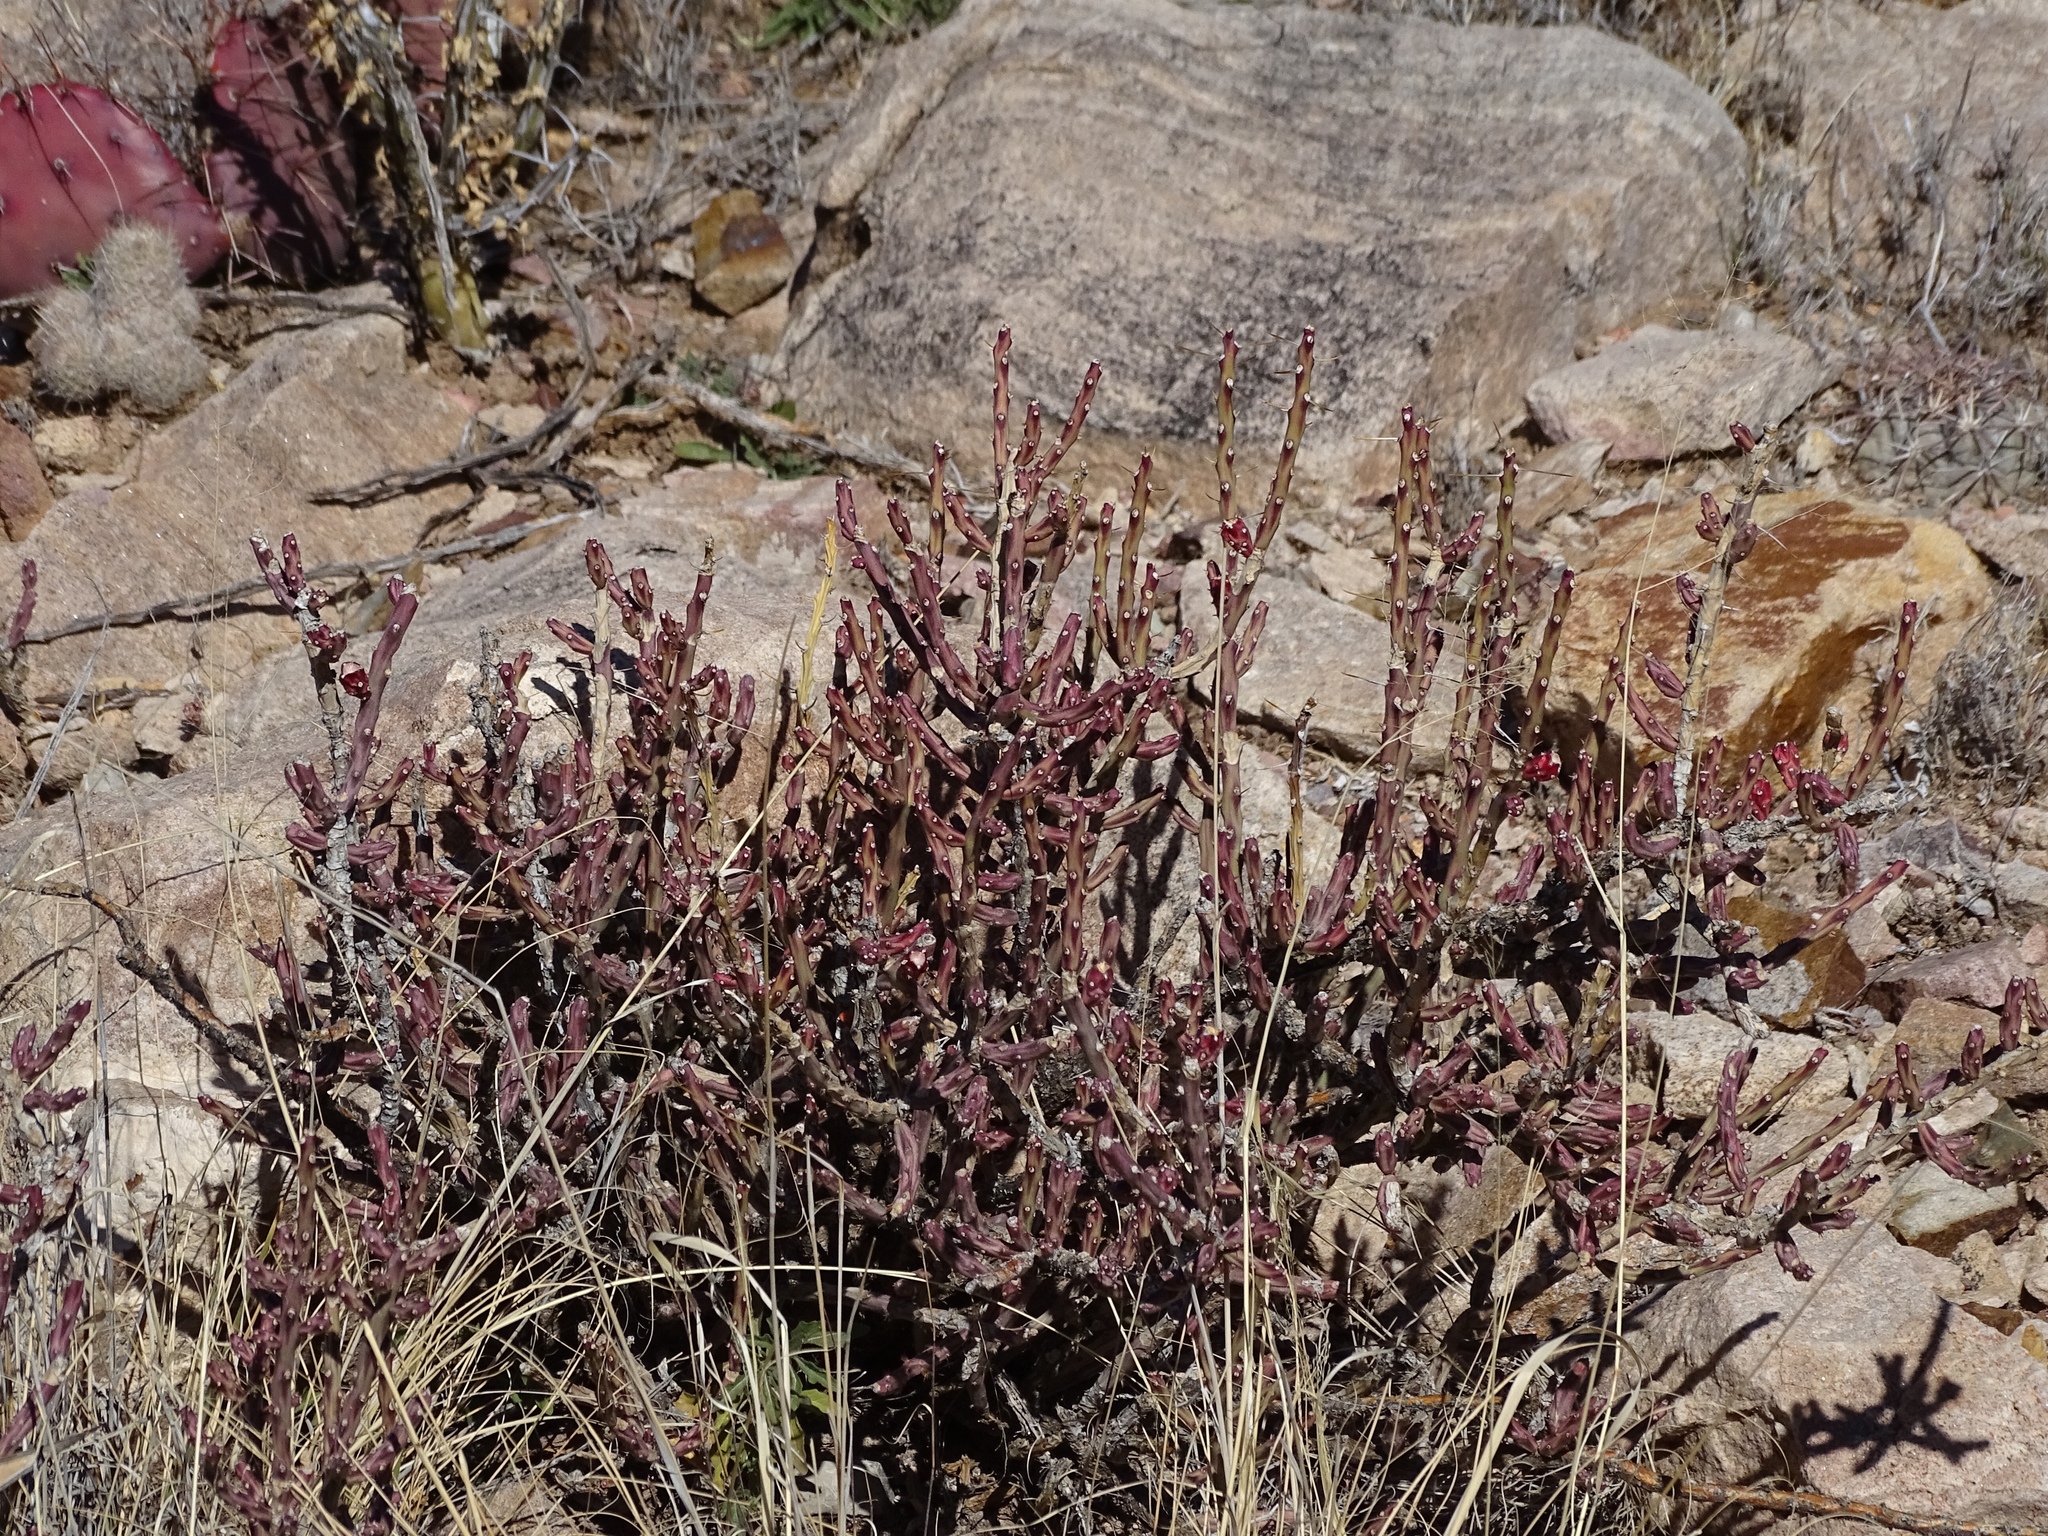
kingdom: Plantae
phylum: Tracheophyta
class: Magnoliopsida
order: Caryophyllales
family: Cactaceae
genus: Cylindropuntia
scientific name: Cylindropuntia leptocaulis
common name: Christmas cactus
